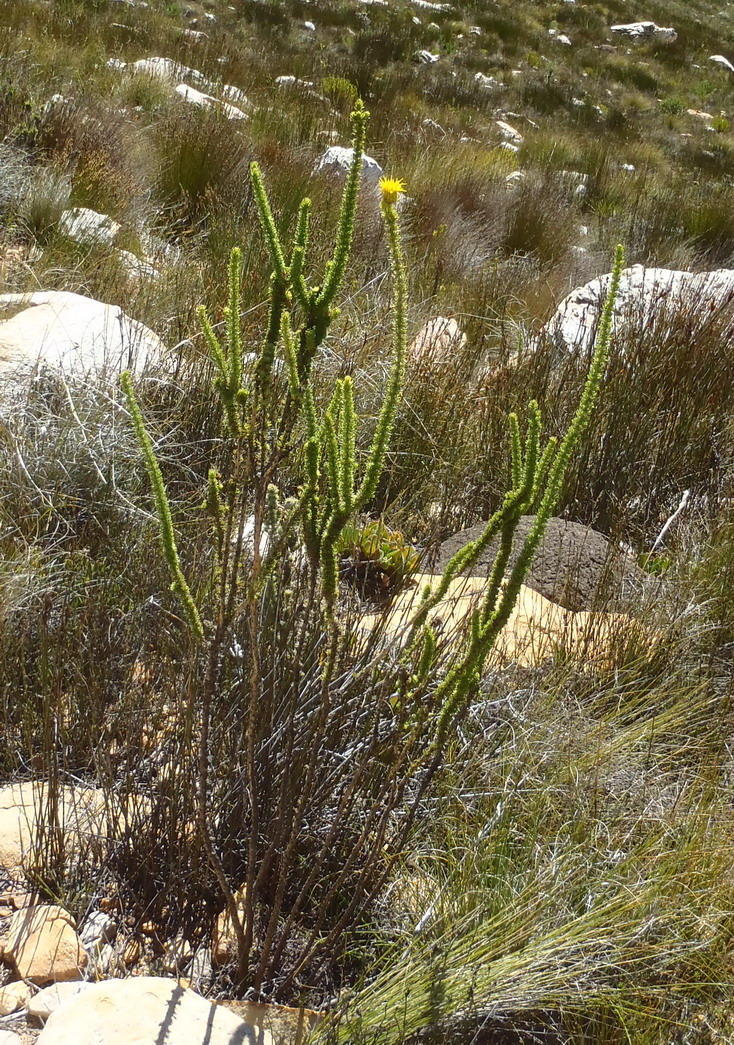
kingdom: Plantae
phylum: Tracheophyta
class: Magnoliopsida
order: Asterales
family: Asteraceae
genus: Pteronia
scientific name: Pteronia camphorata
